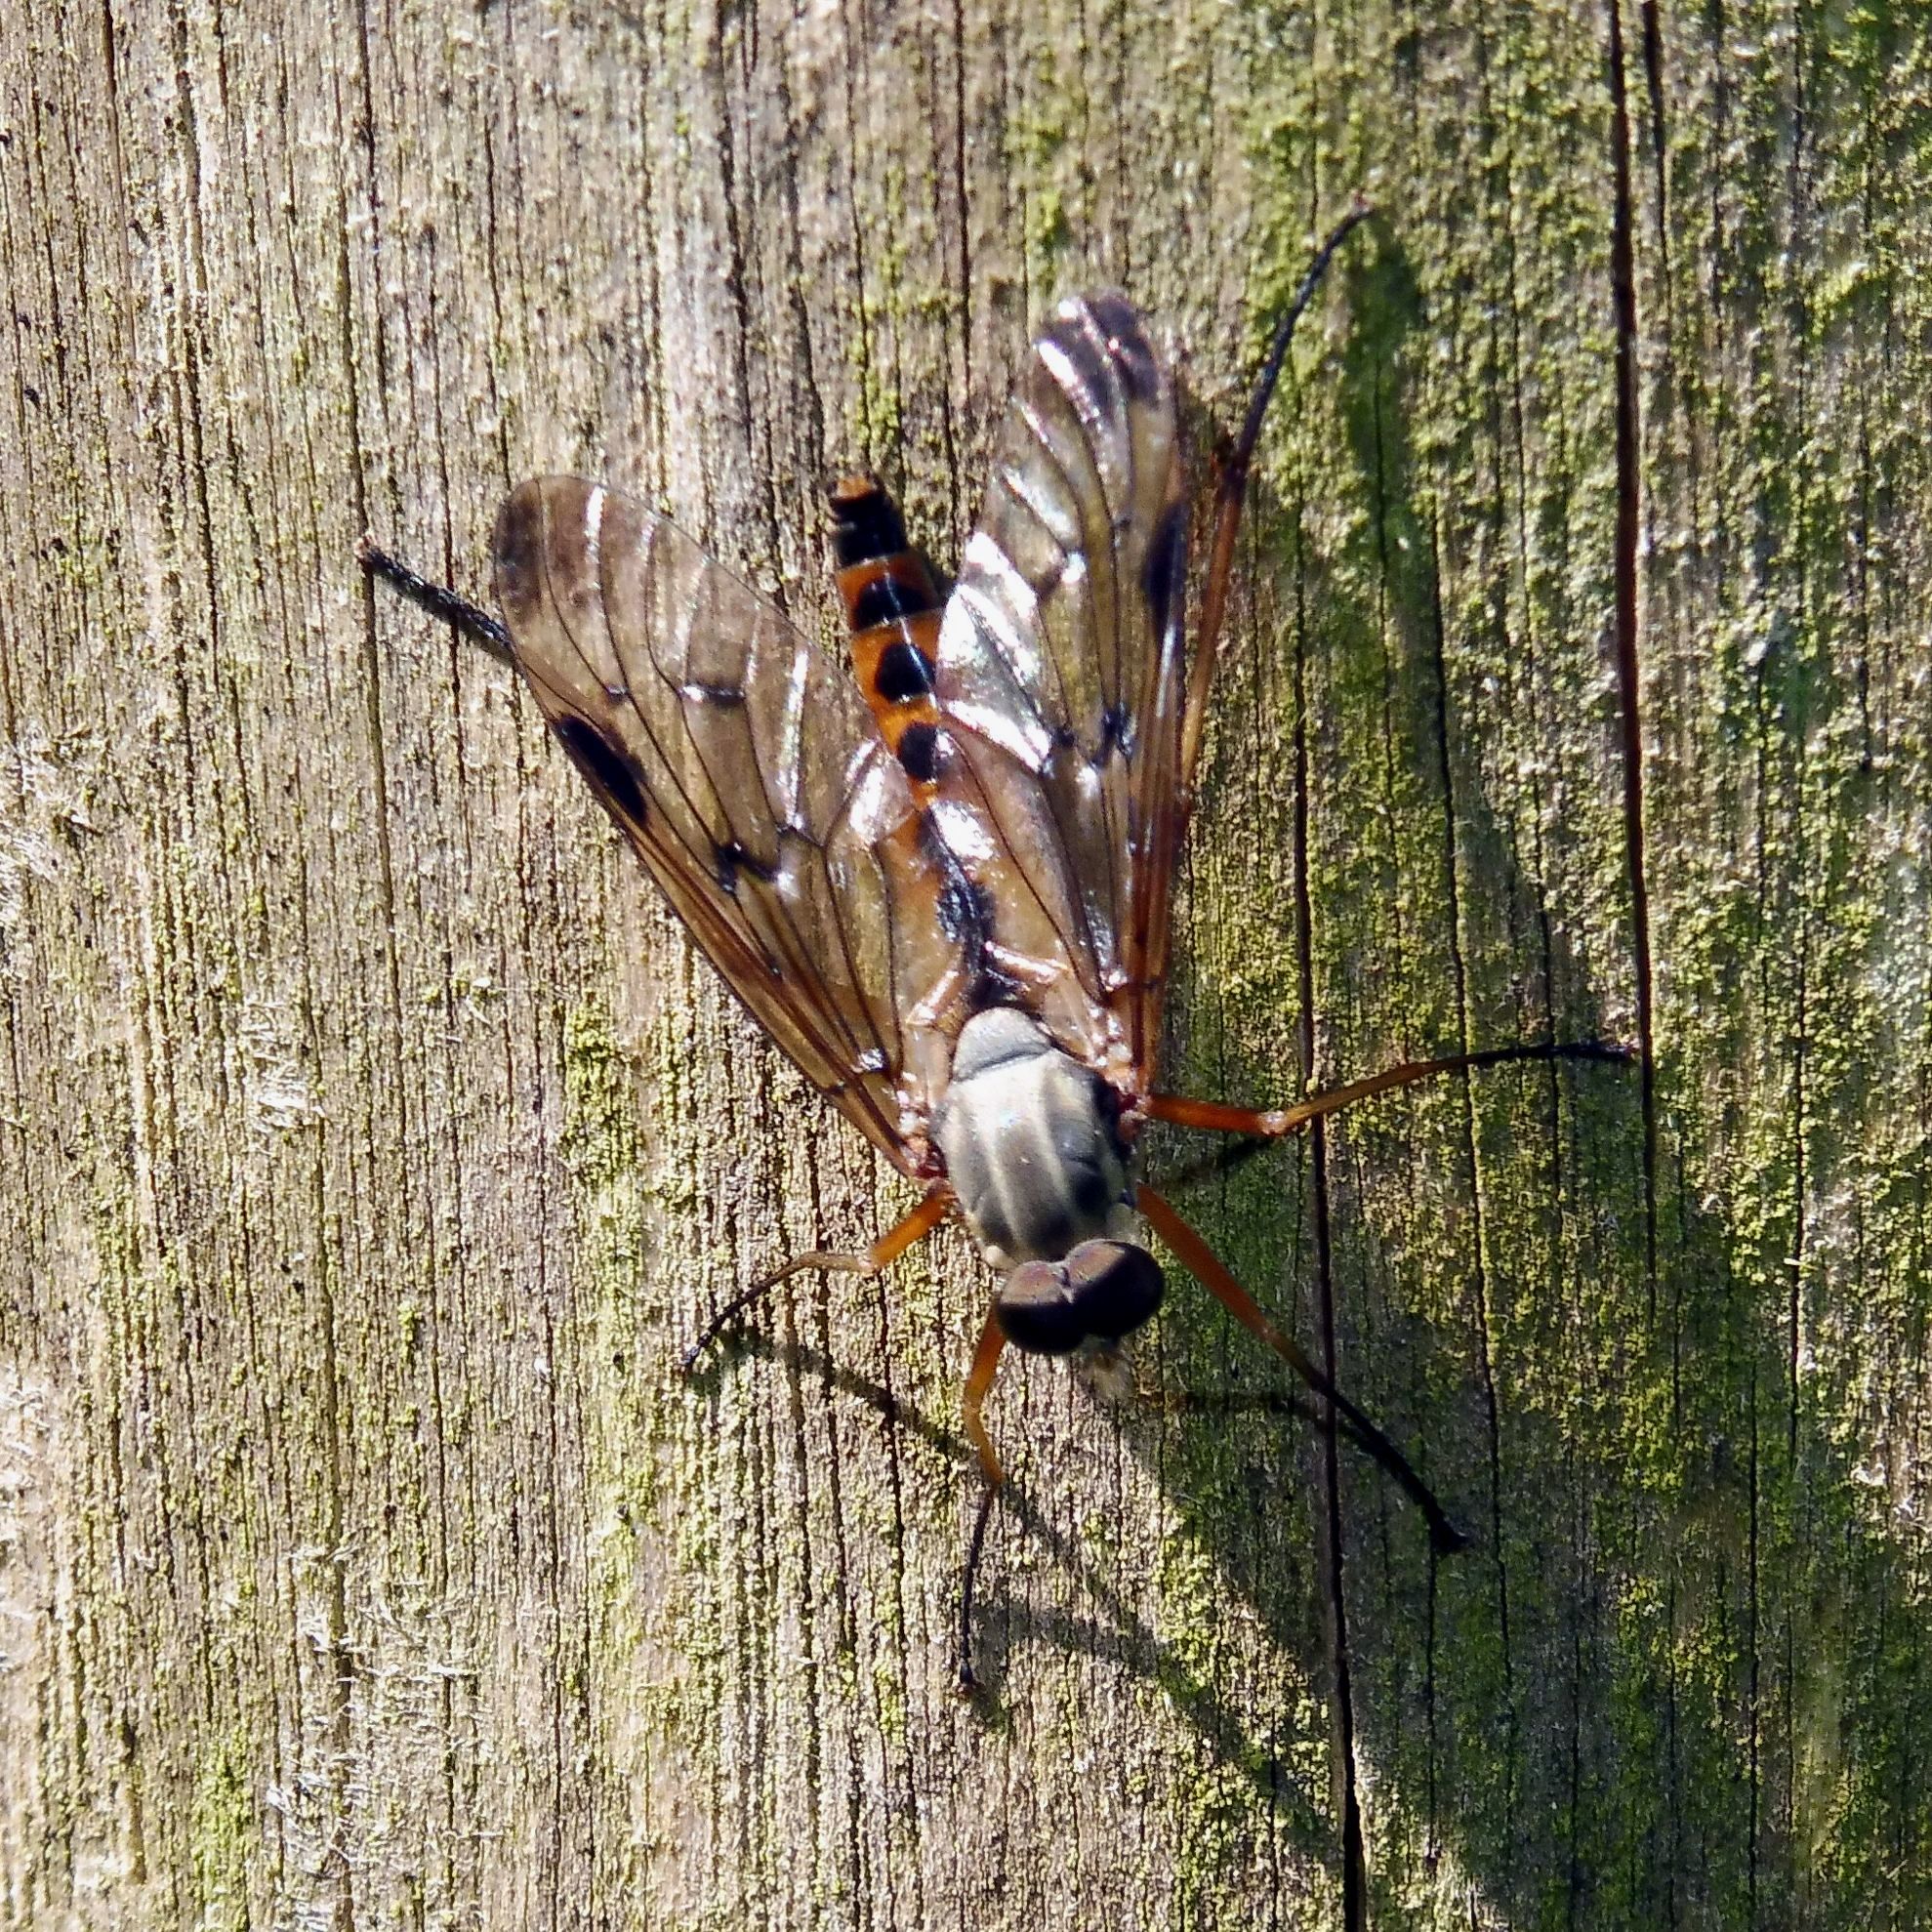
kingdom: Animalia
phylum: Arthropoda
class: Insecta
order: Diptera
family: Rhagionidae
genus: Rhagio
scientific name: Rhagio scolopacea
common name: Downlooker snipefly
